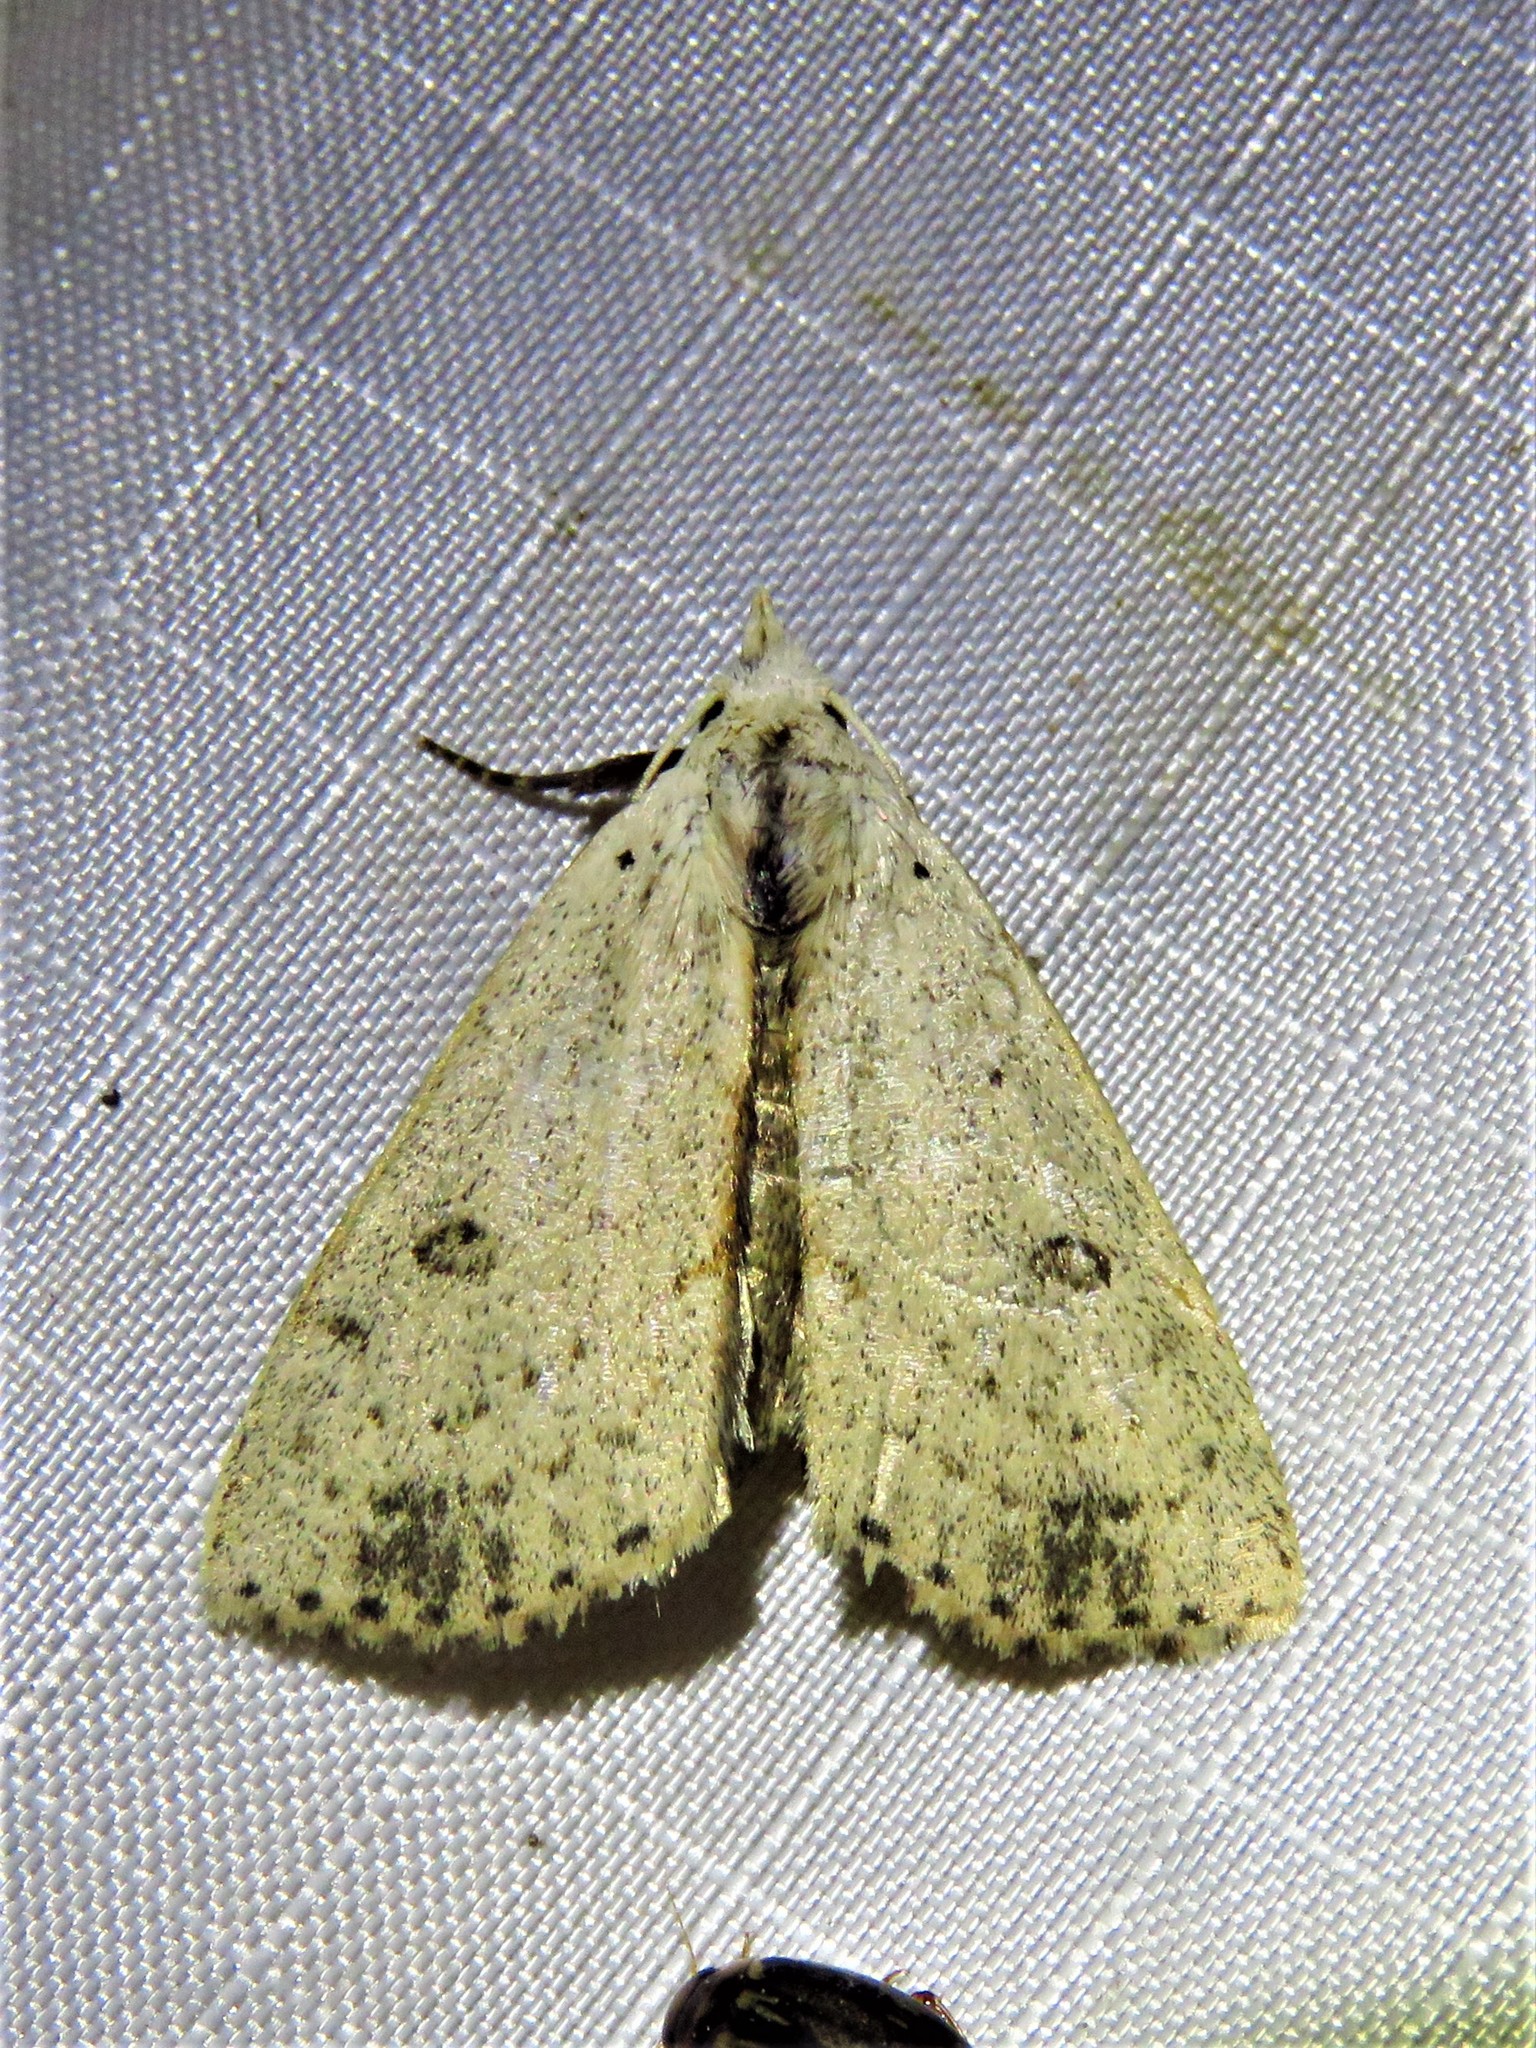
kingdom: Animalia
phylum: Arthropoda
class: Insecta
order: Lepidoptera
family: Erebidae
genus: Scolecocampa
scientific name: Scolecocampa liburna
